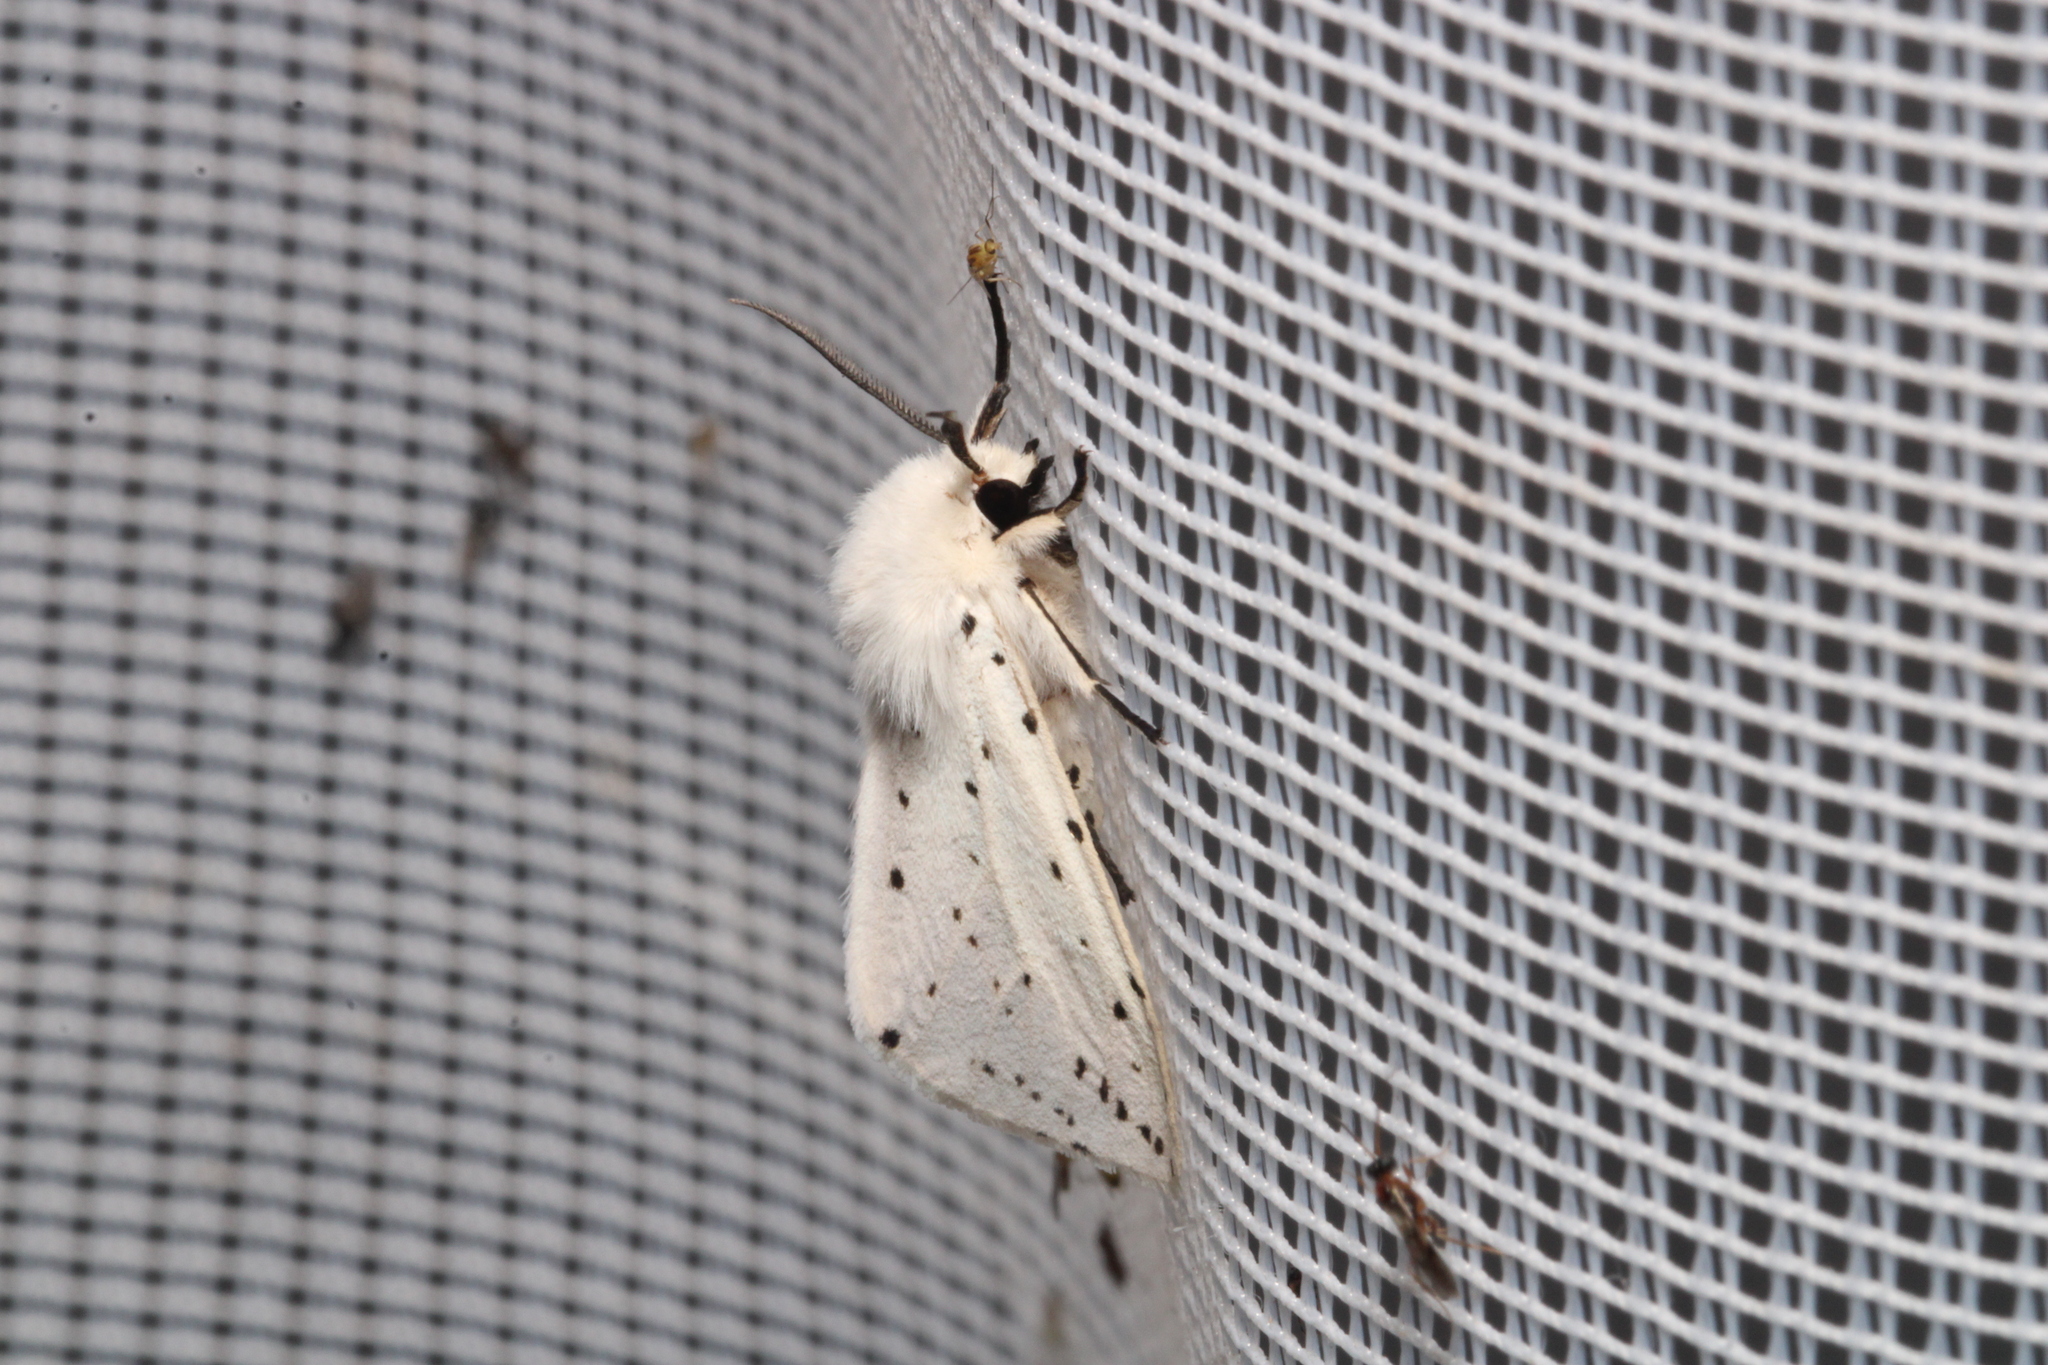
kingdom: Animalia
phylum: Arthropoda
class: Insecta
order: Lepidoptera
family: Erebidae
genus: Spilosoma
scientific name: Spilosoma lubricipeda
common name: White ermine
